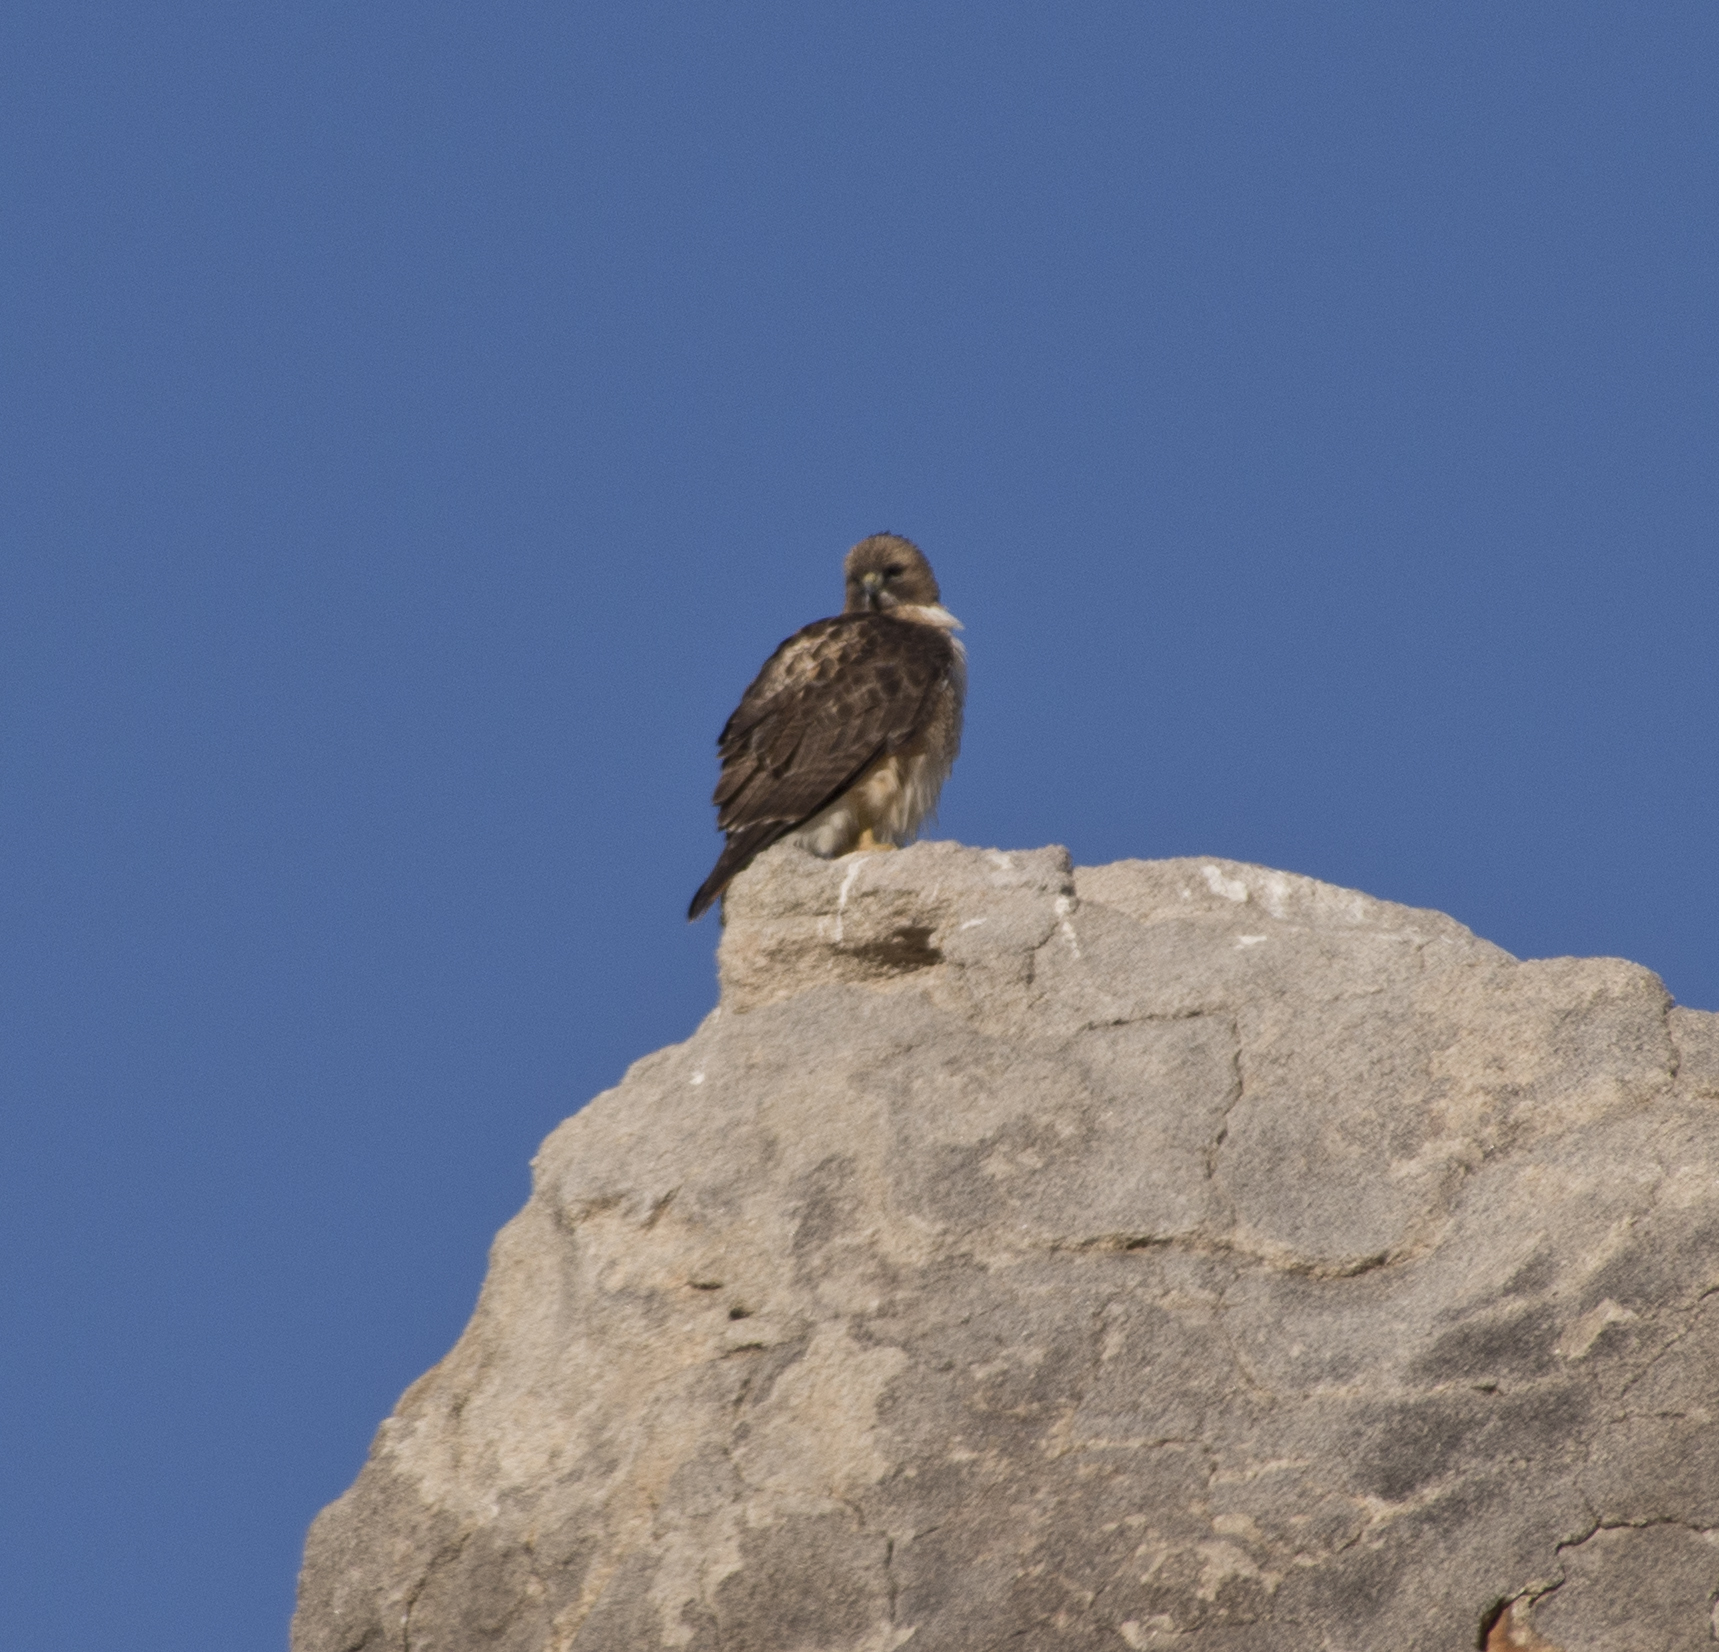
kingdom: Animalia
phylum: Chordata
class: Aves
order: Accipitriformes
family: Accipitridae
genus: Buteo
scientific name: Buteo jamaicensis
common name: Red-tailed hawk
